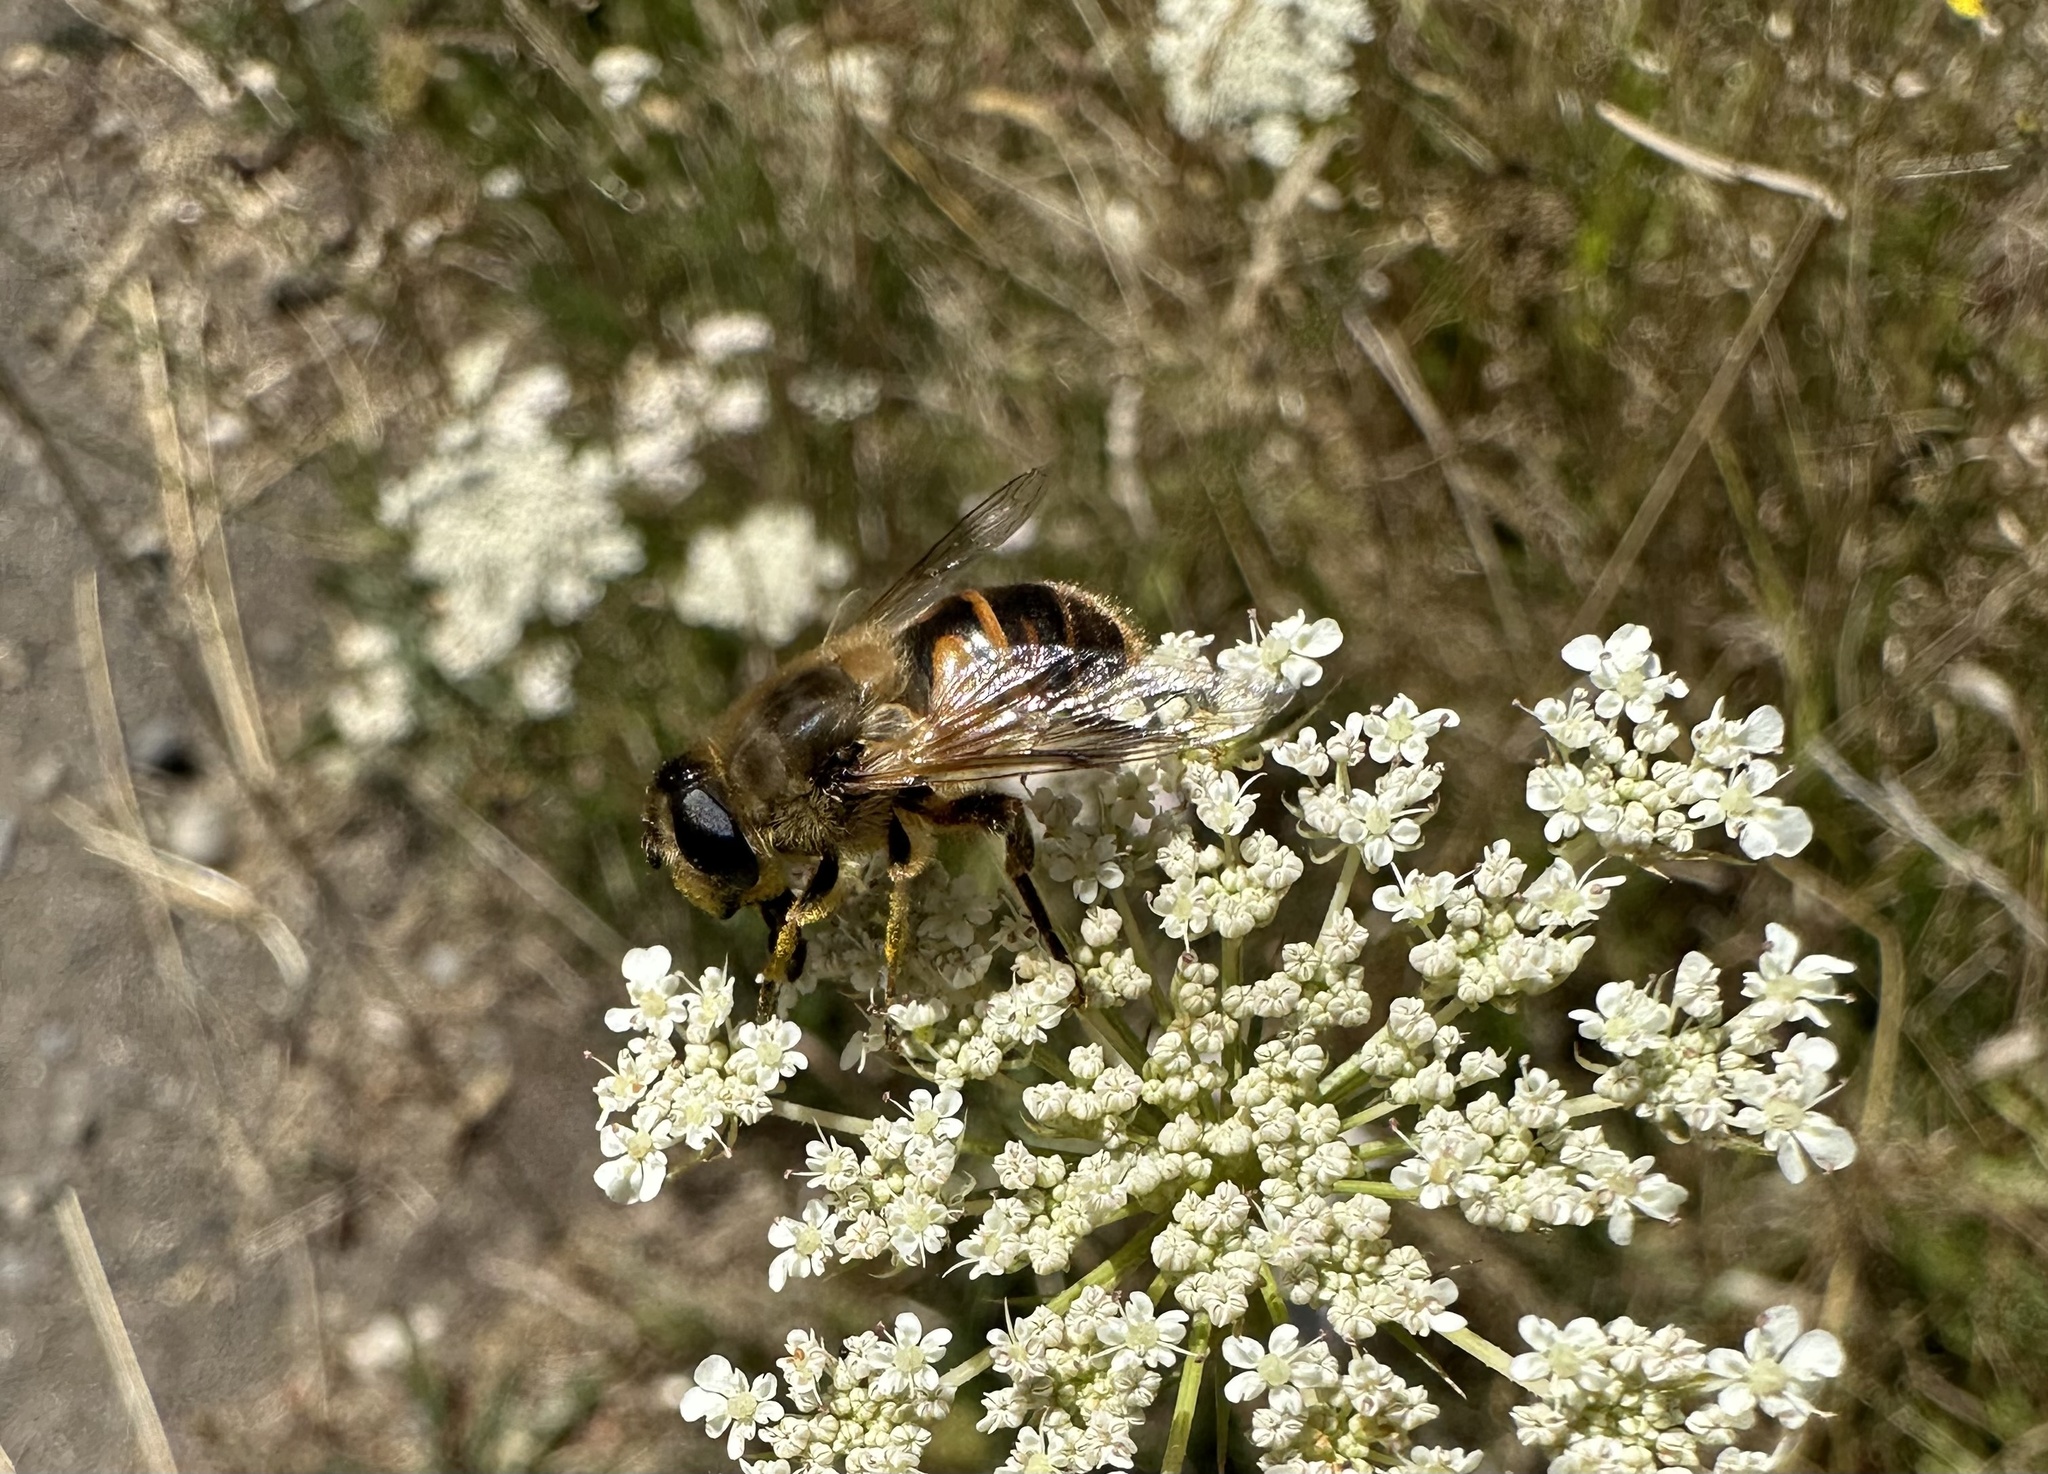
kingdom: Animalia
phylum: Arthropoda
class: Insecta
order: Diptera
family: Syrphidae
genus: Eristalis
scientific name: Eristalis tenax
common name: Drone fly
